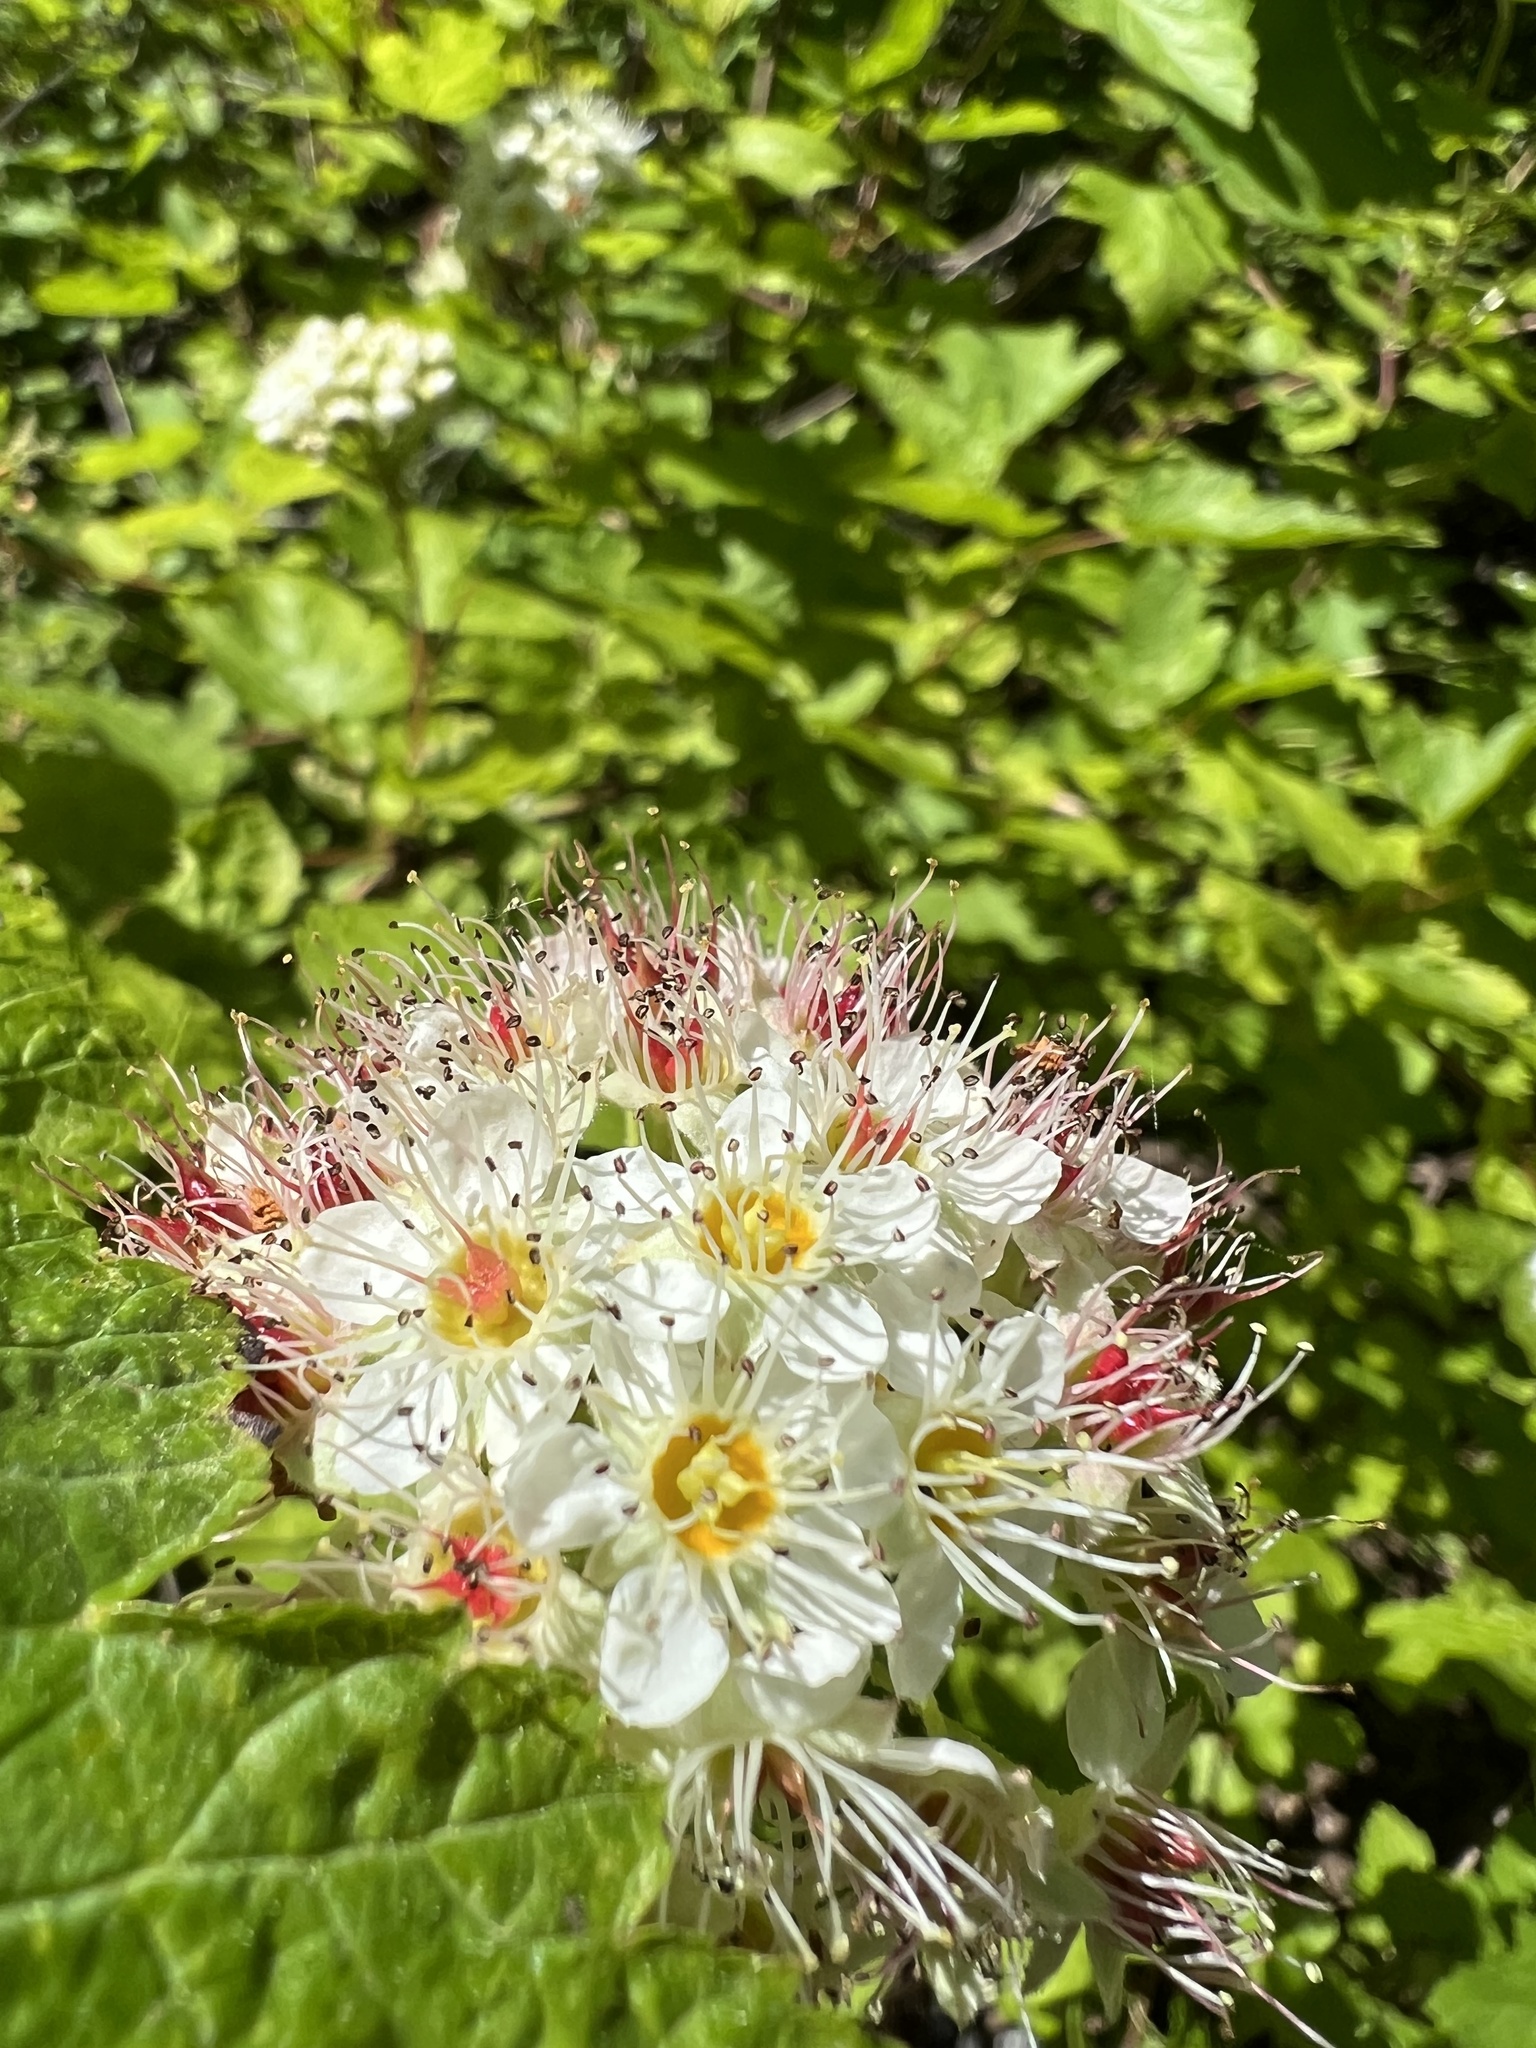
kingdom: Plantae
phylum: Tracheophyta
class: Magnoliopsida
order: Rosales
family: Rosaceae
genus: Physocarpus
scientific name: Physocarpus capitatus
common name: Pacific ninebark
